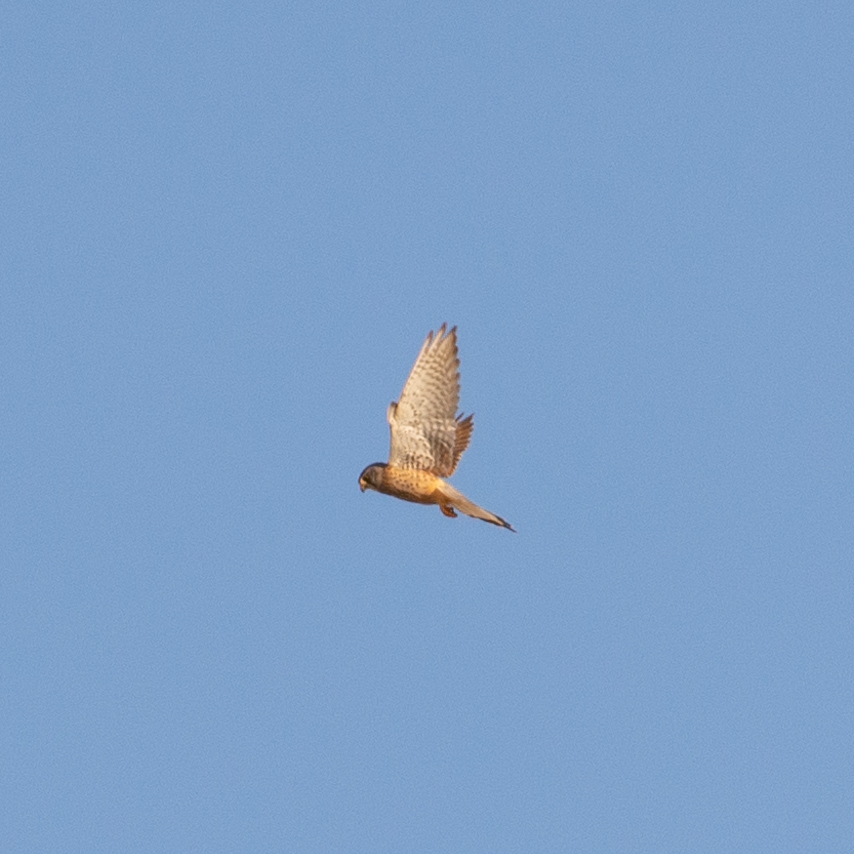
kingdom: Animalia
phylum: Chordata
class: Aves
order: Falconiformes
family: Falconidae
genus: Falco
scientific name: Falco tinnunculus
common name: Common kestrel
